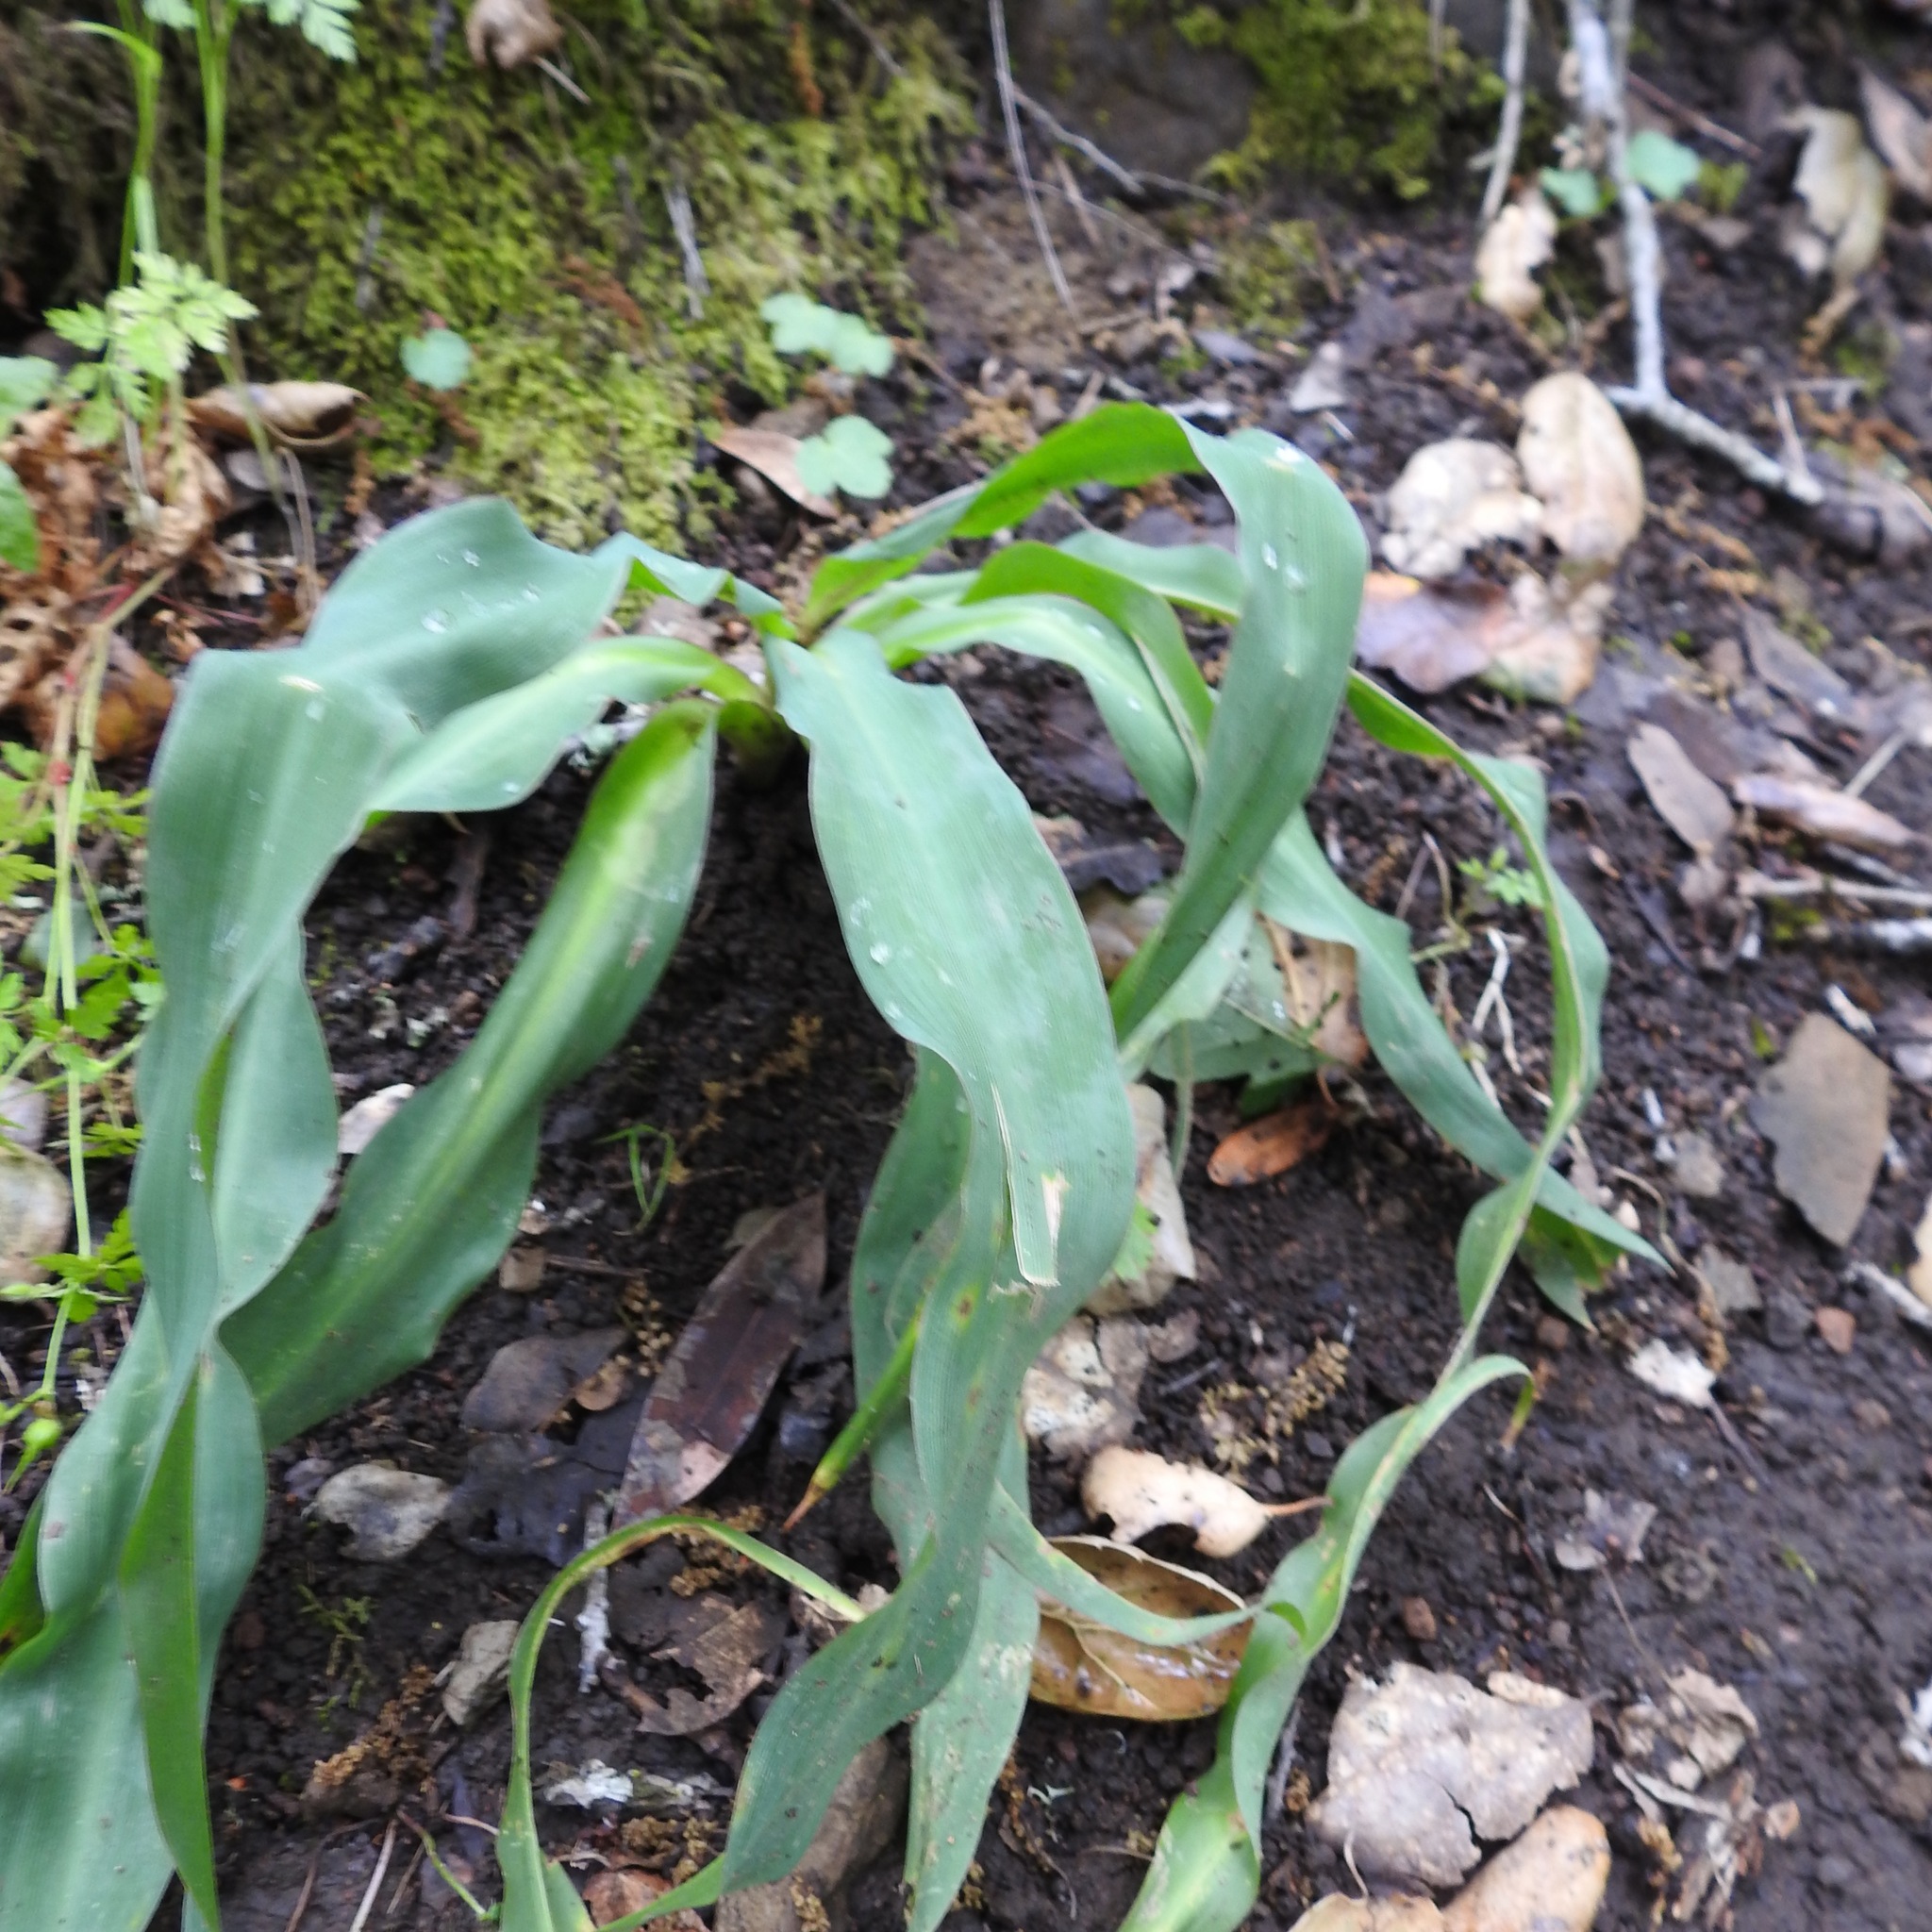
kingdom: Plantae
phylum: Tracheophyta
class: Liliopsida
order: Asparagales
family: Asparagaceae
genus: Chlorogalum
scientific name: Chlorogalum pomeridianum
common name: Amole
